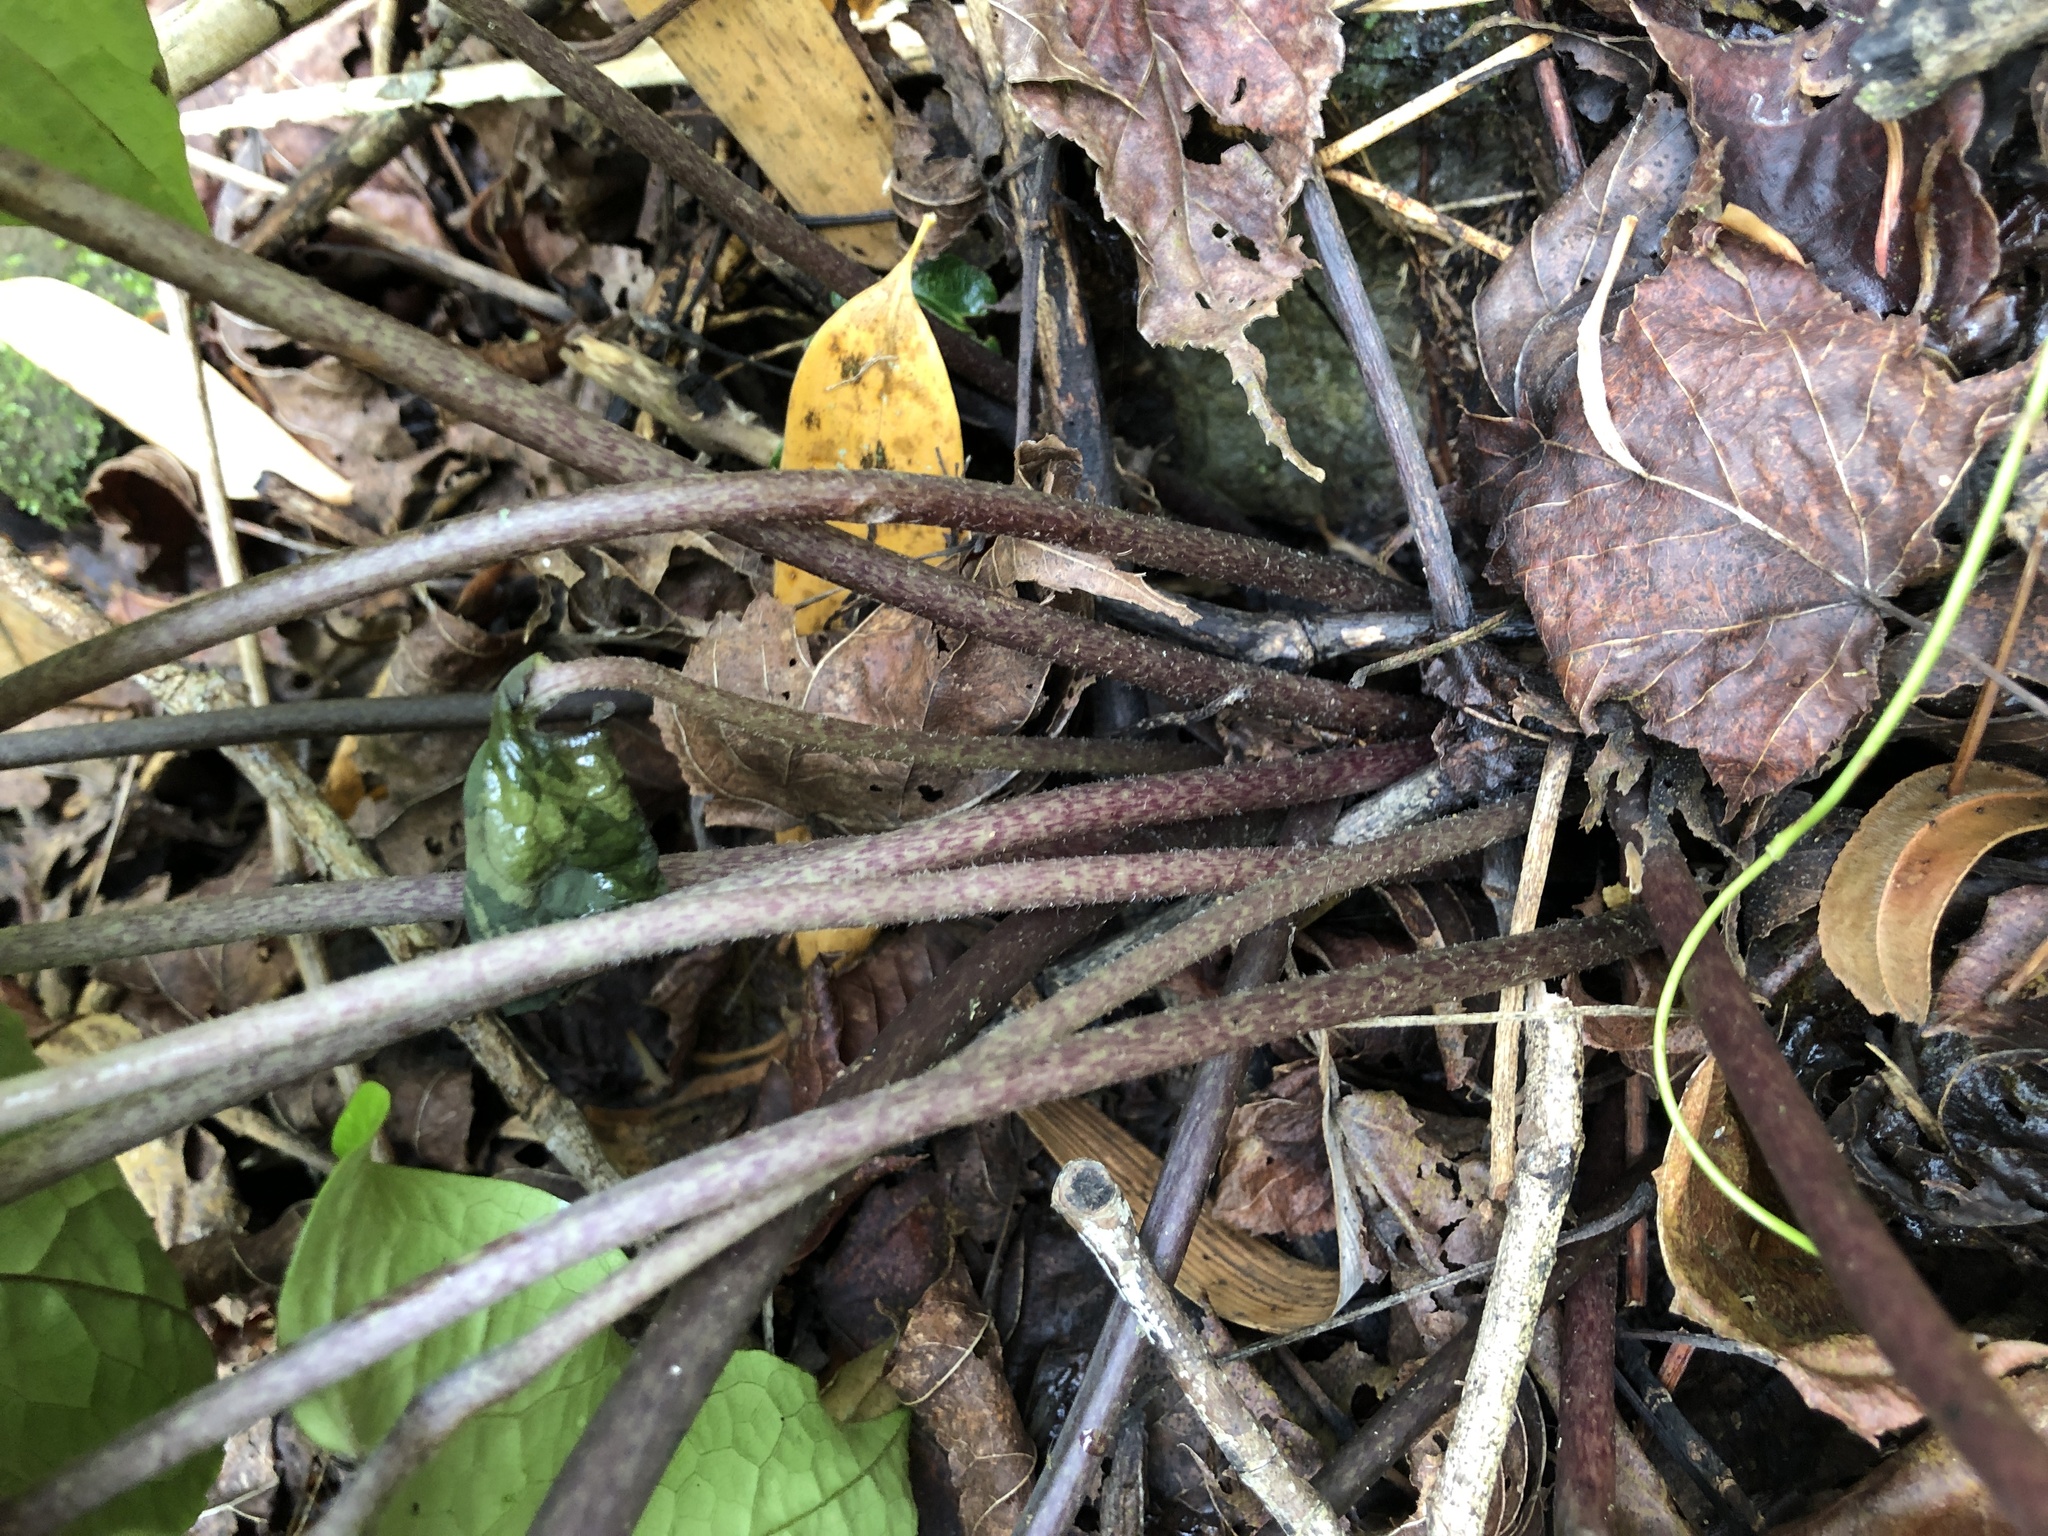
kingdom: Plantae
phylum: Tracheophyta
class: Magnoliopsida
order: Piperales
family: Aristolochiaceae
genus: Asarum
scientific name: Asarum hypogynum
